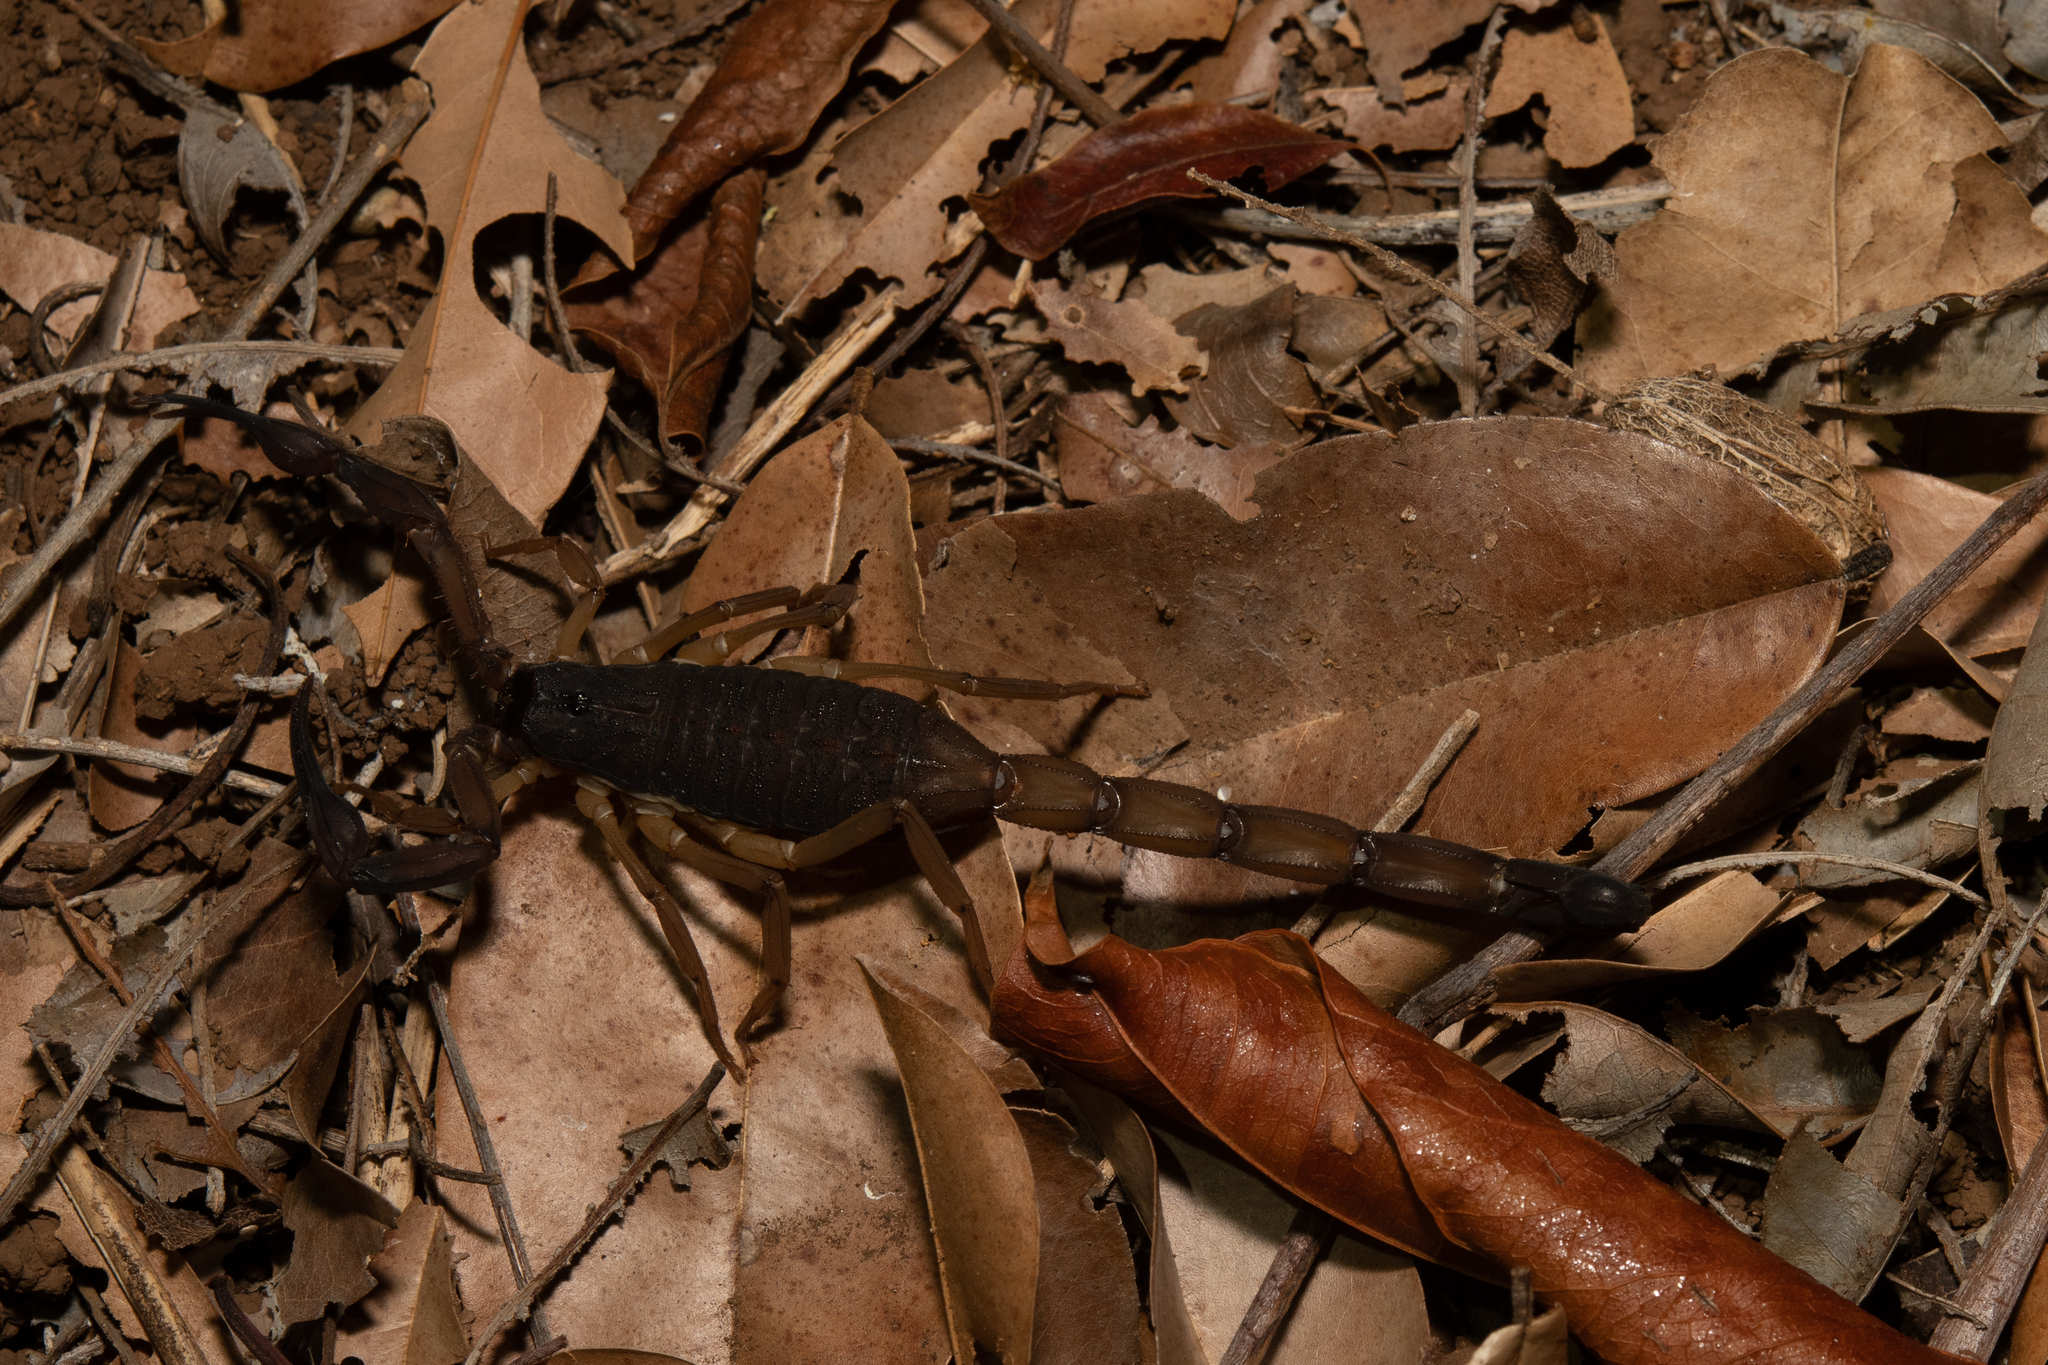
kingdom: Animalia
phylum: Arthropoda
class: Arachnida
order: Scorpiones
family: Buthidae
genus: Centruroides
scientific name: Centruroides gracilis
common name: Scorpions
